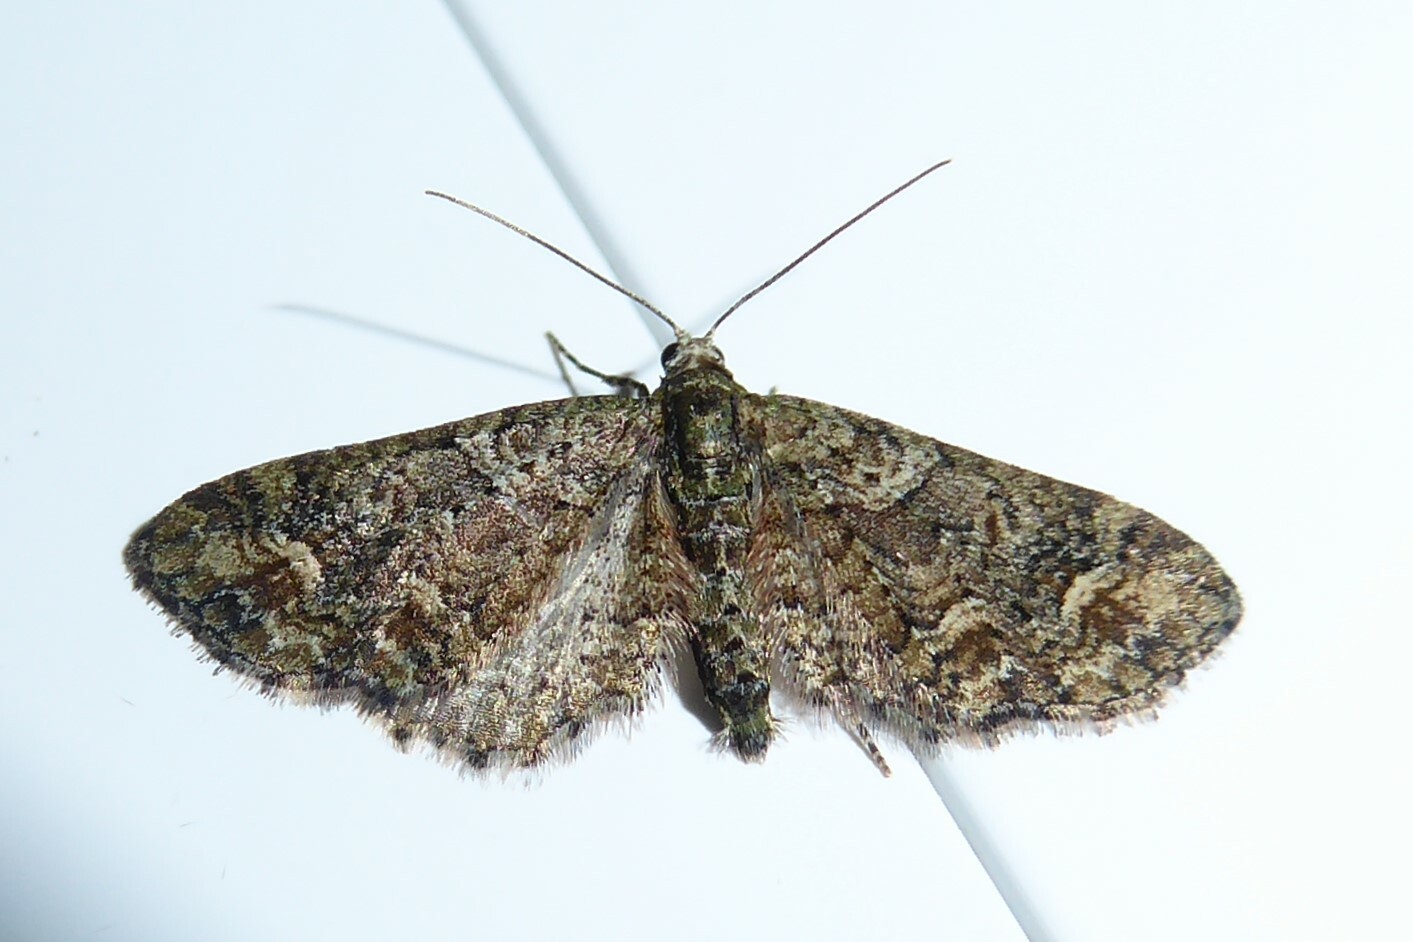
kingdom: Animalia
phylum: Arthropoda
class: Insecta
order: Lepidoptera
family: Geometridae
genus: Idaea
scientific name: Idaea mutanda
